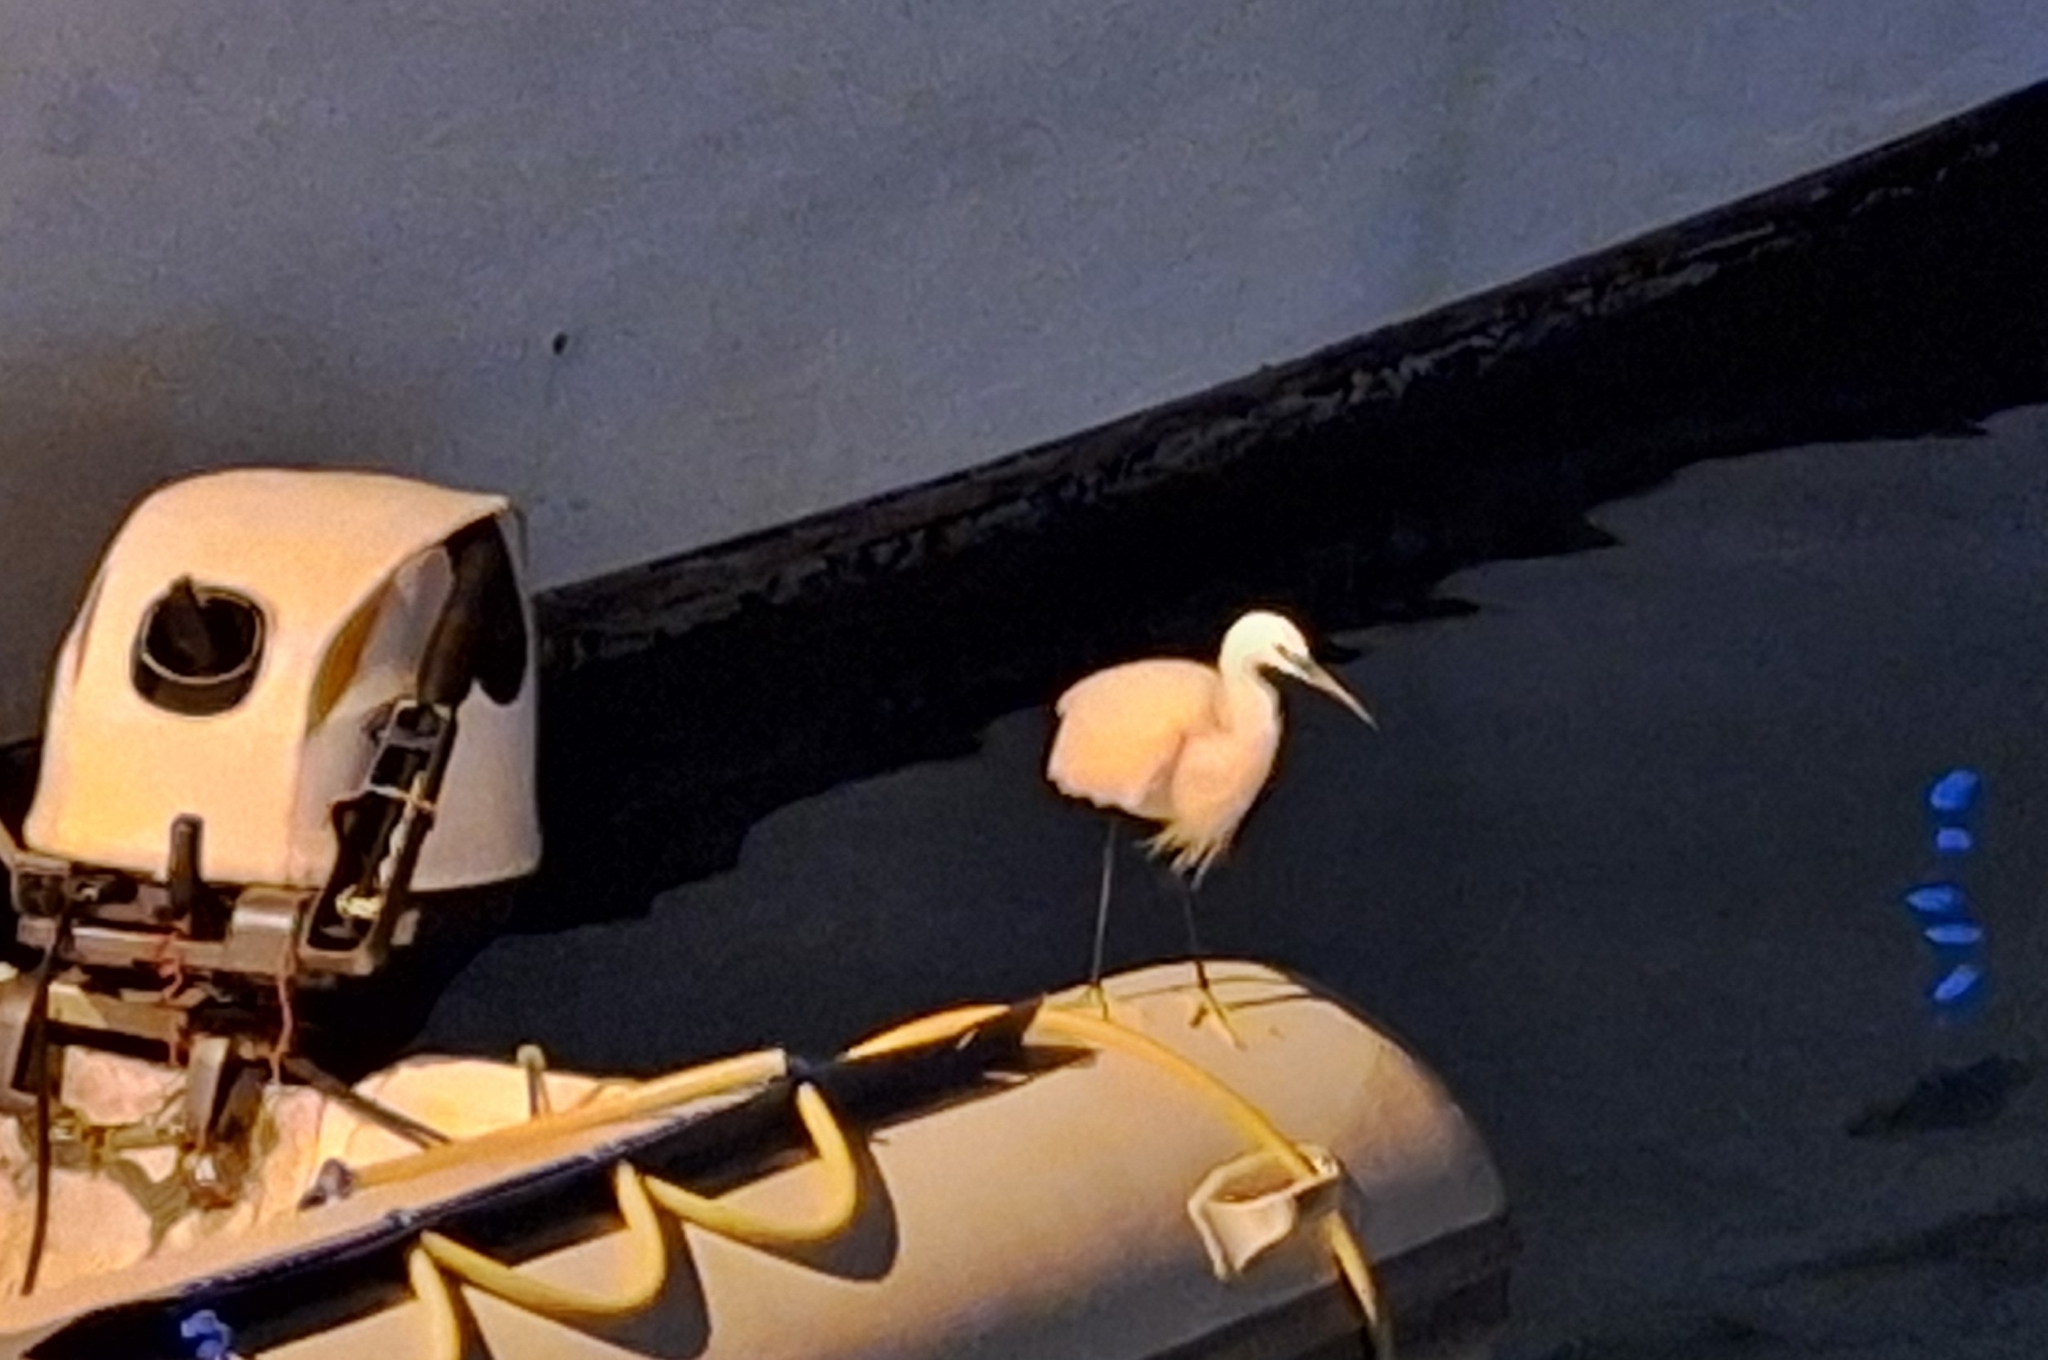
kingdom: Animalia
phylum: Chordata
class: Aves
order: Pelecaniformes
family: Ardeidae
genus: Egretta
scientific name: Egretta garzetta
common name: Little egret
